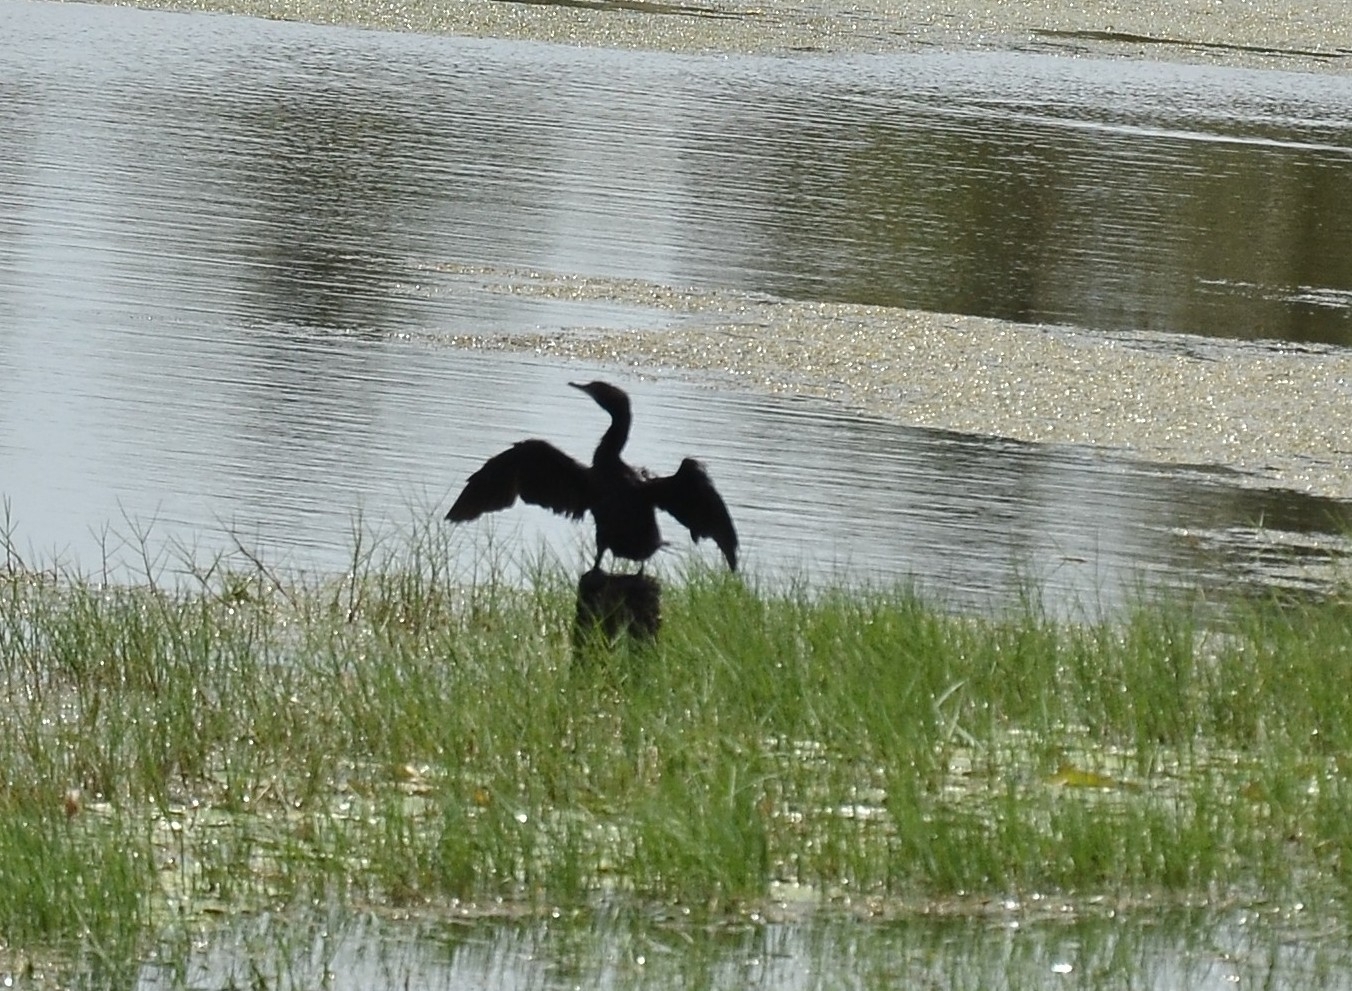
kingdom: Animalia
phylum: Chordata
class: Aves
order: Suliformes
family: Phalacrocoracidae
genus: Microcarbo
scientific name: Microcarbo niger
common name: Little cormorant
